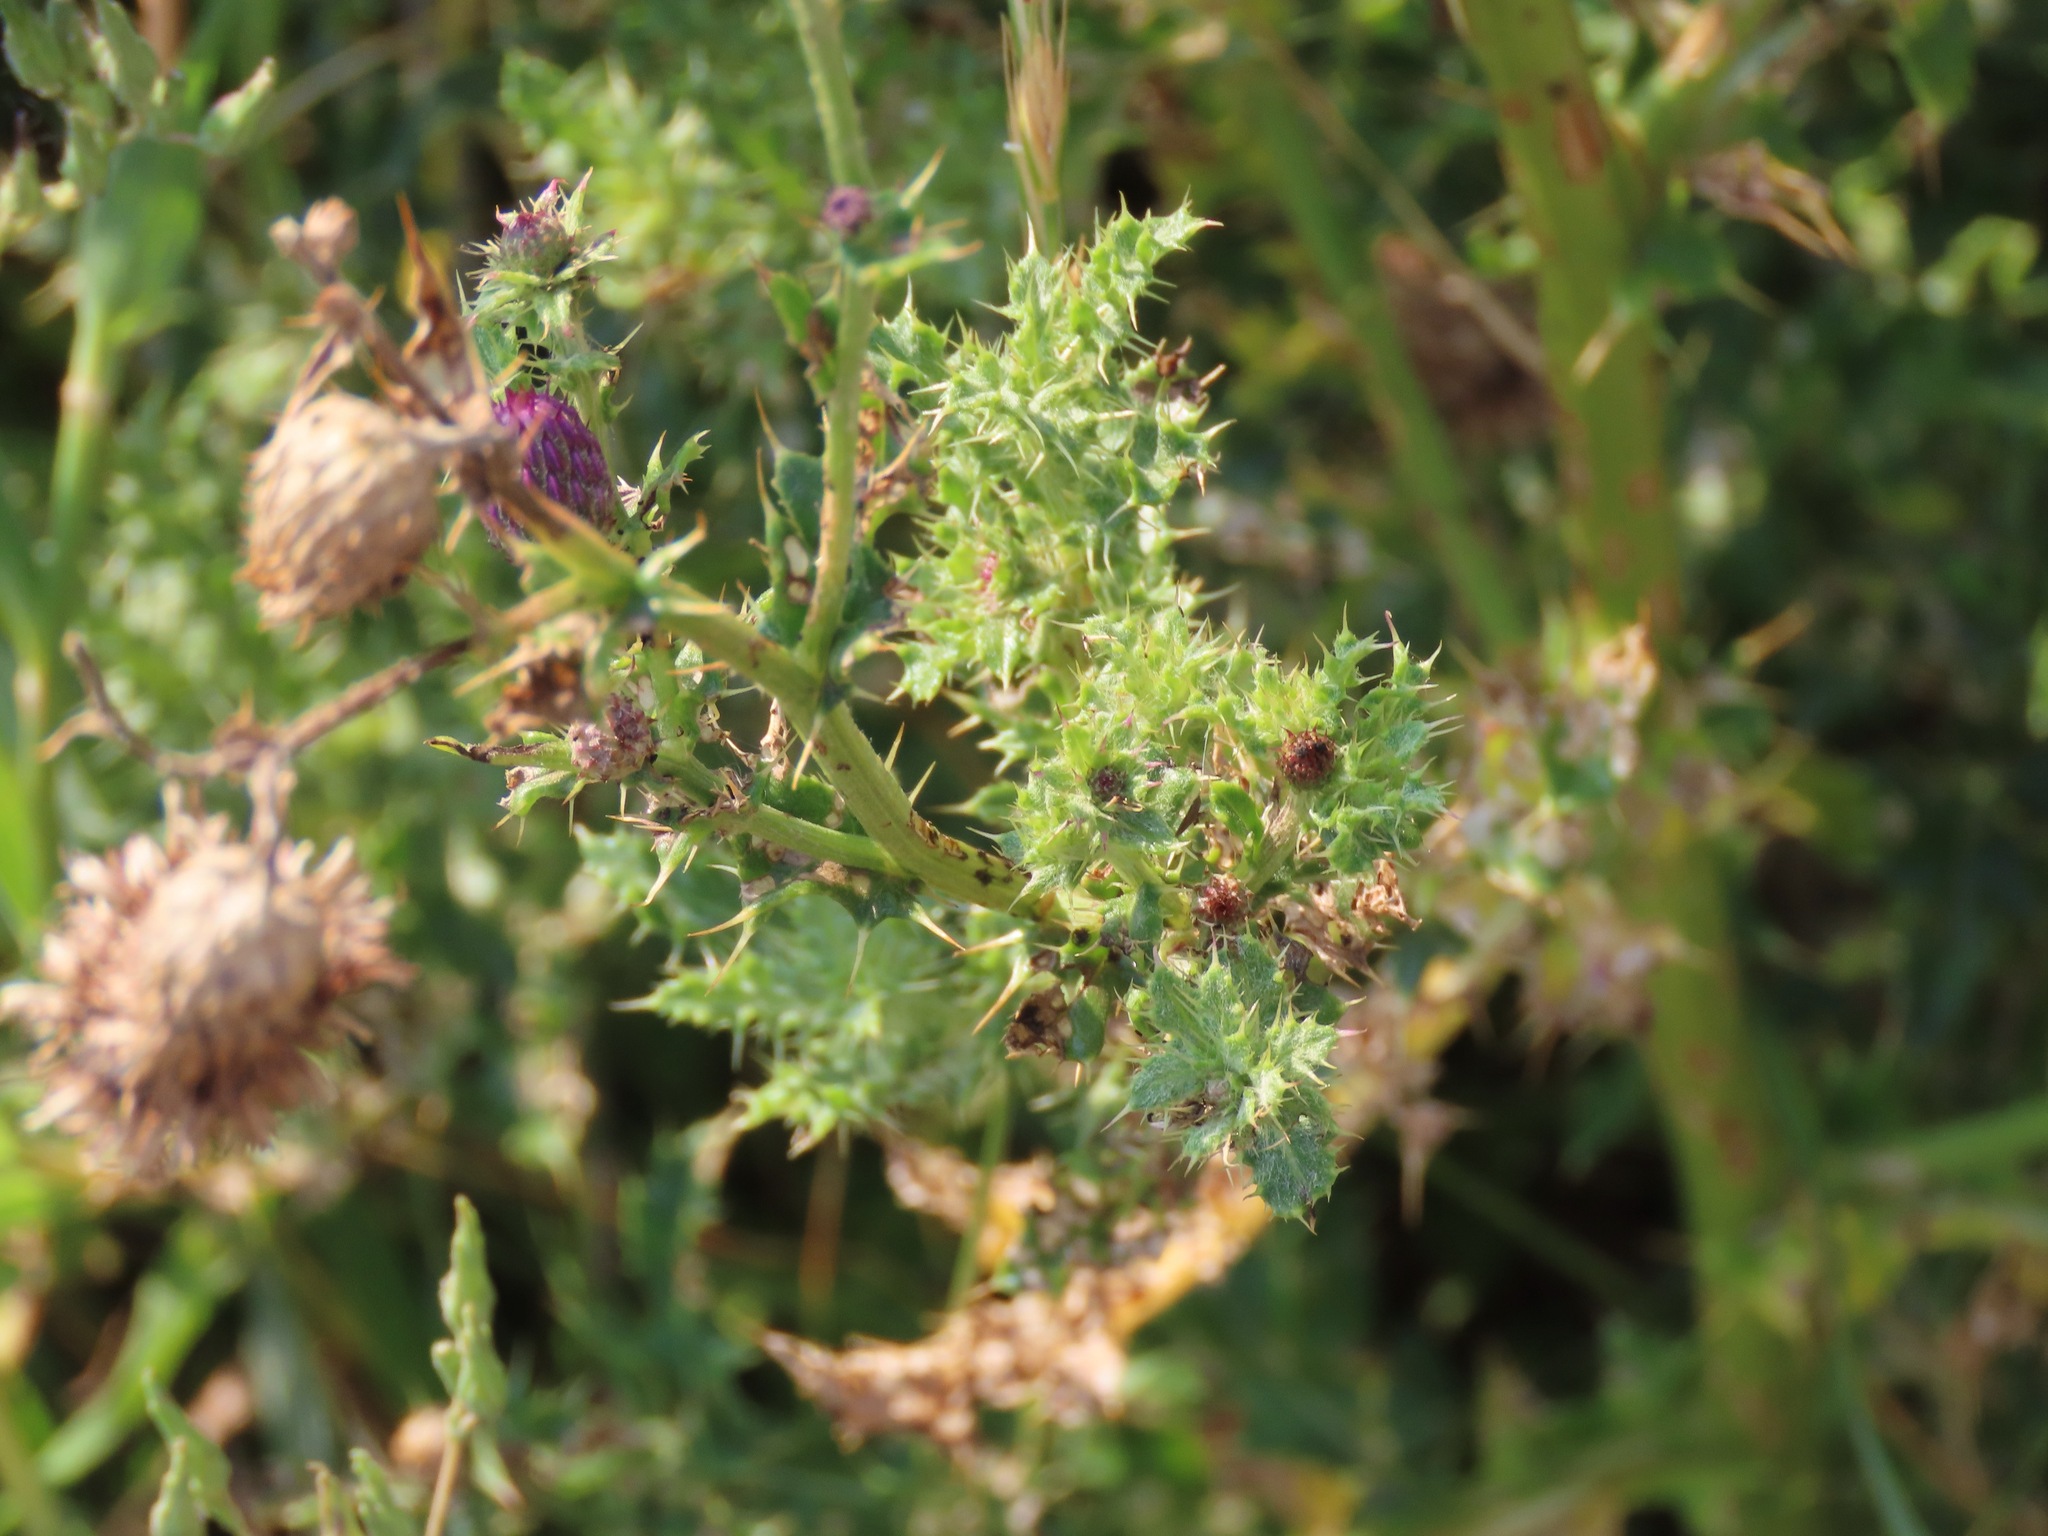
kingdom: Plantae
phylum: Tracheophyta
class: Magnoliopsida
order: Asterales
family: Asteraceae
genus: Cirsium
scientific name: Cirsium arvense
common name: Creeping thistle
